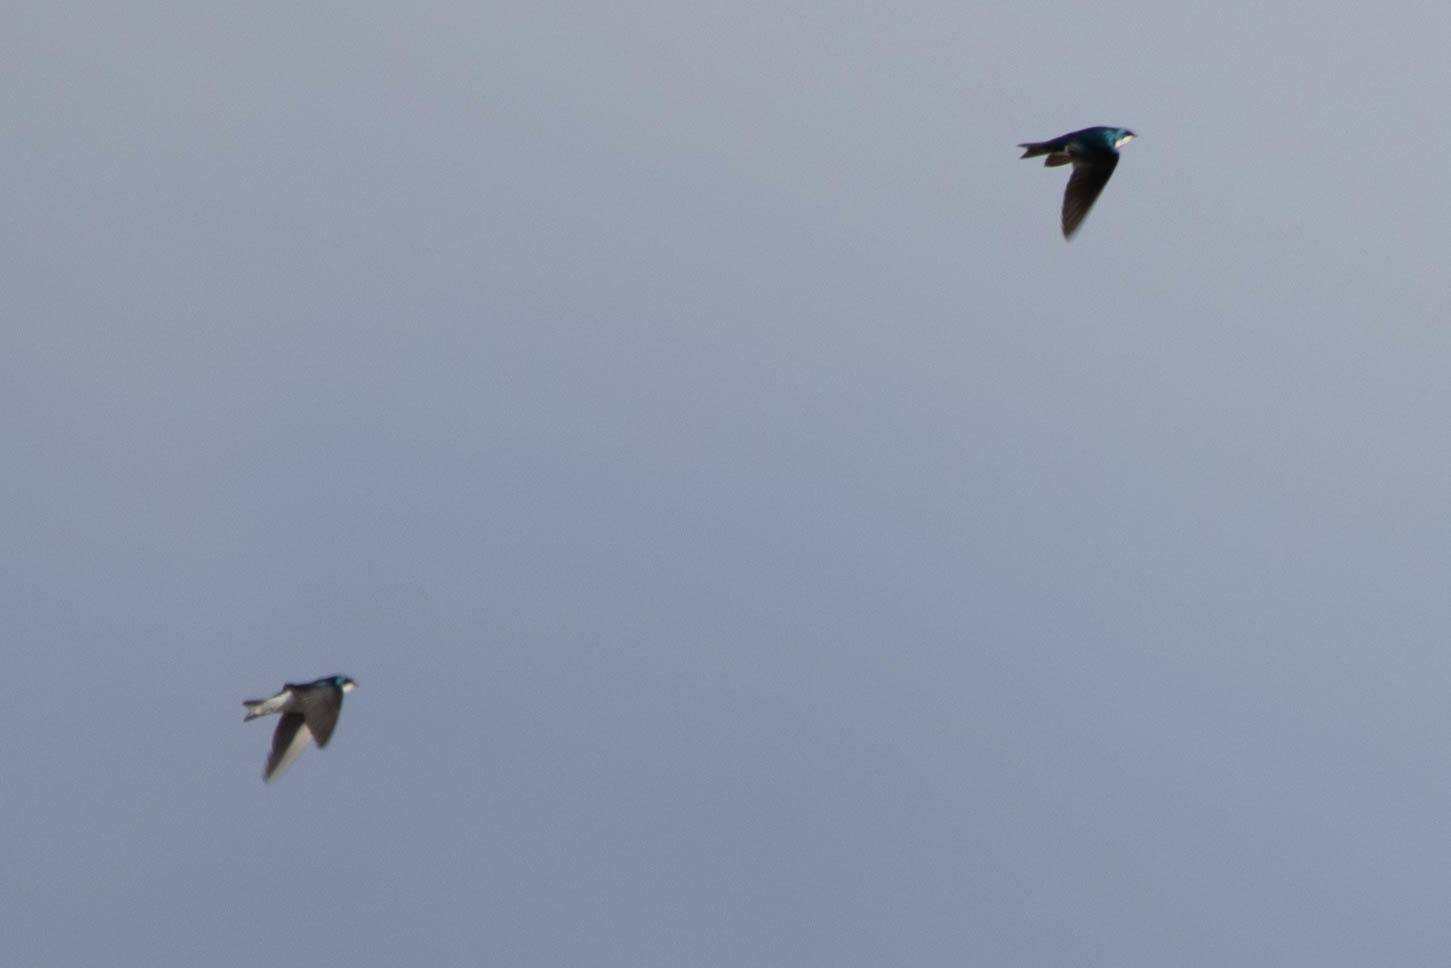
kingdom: Animalia
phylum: Chordata
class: Aves
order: Passeriformes
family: Hirundinidae
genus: Tachycineta
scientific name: Tachycineta bicolor
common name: Tree swallow
